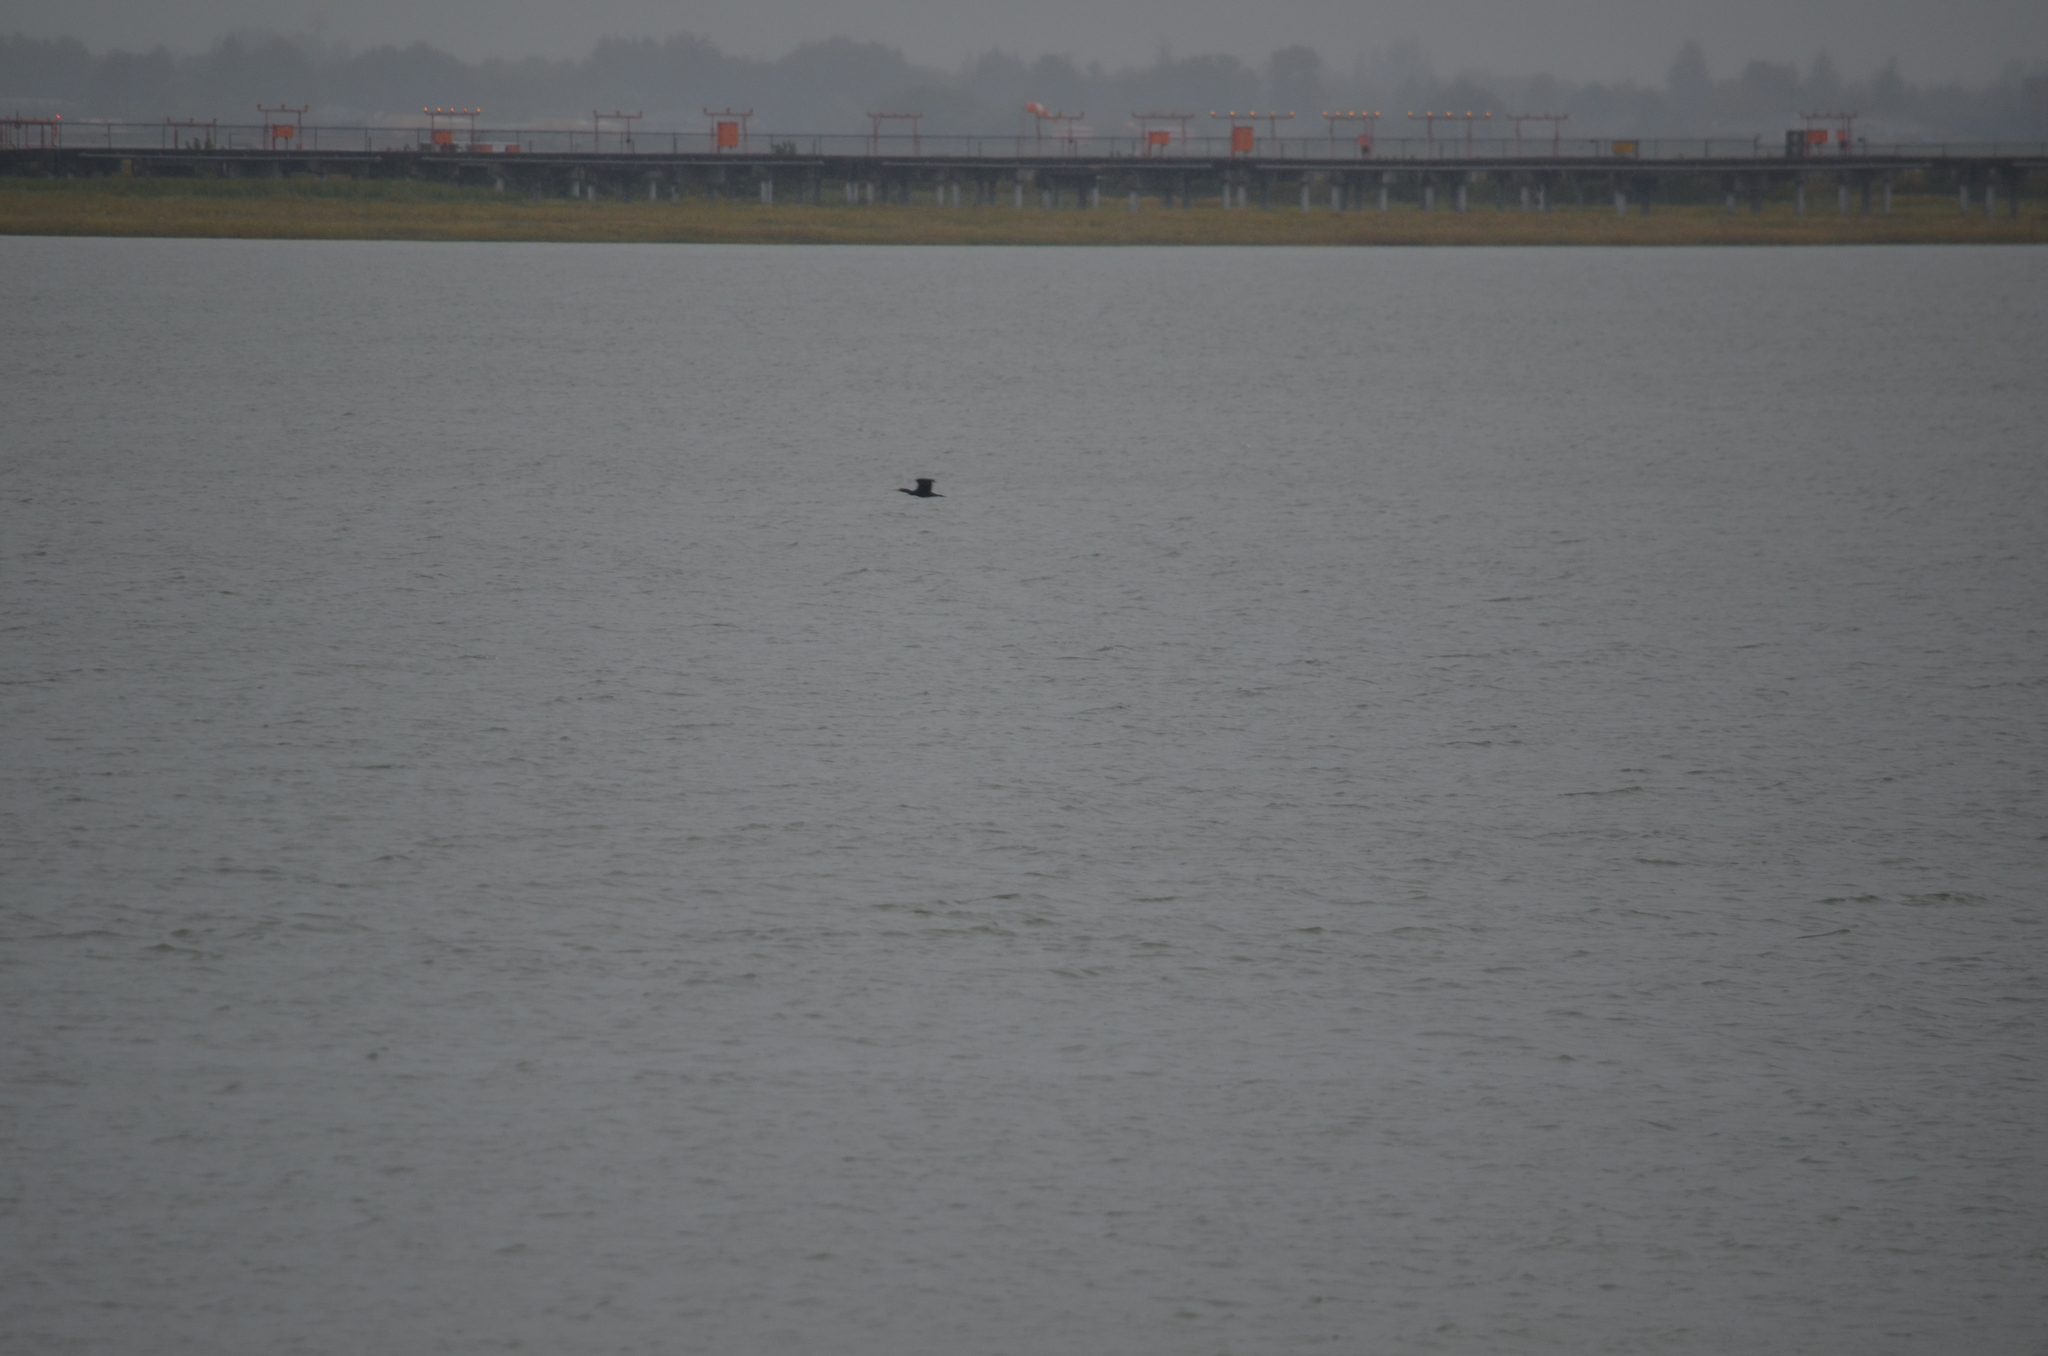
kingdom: Animalia
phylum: Chordata
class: Aves
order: Suliformes
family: Phalacrocoracidae
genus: Phalacrocorax
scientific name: Phalacrocorax auritus
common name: Double-crested cormorant
